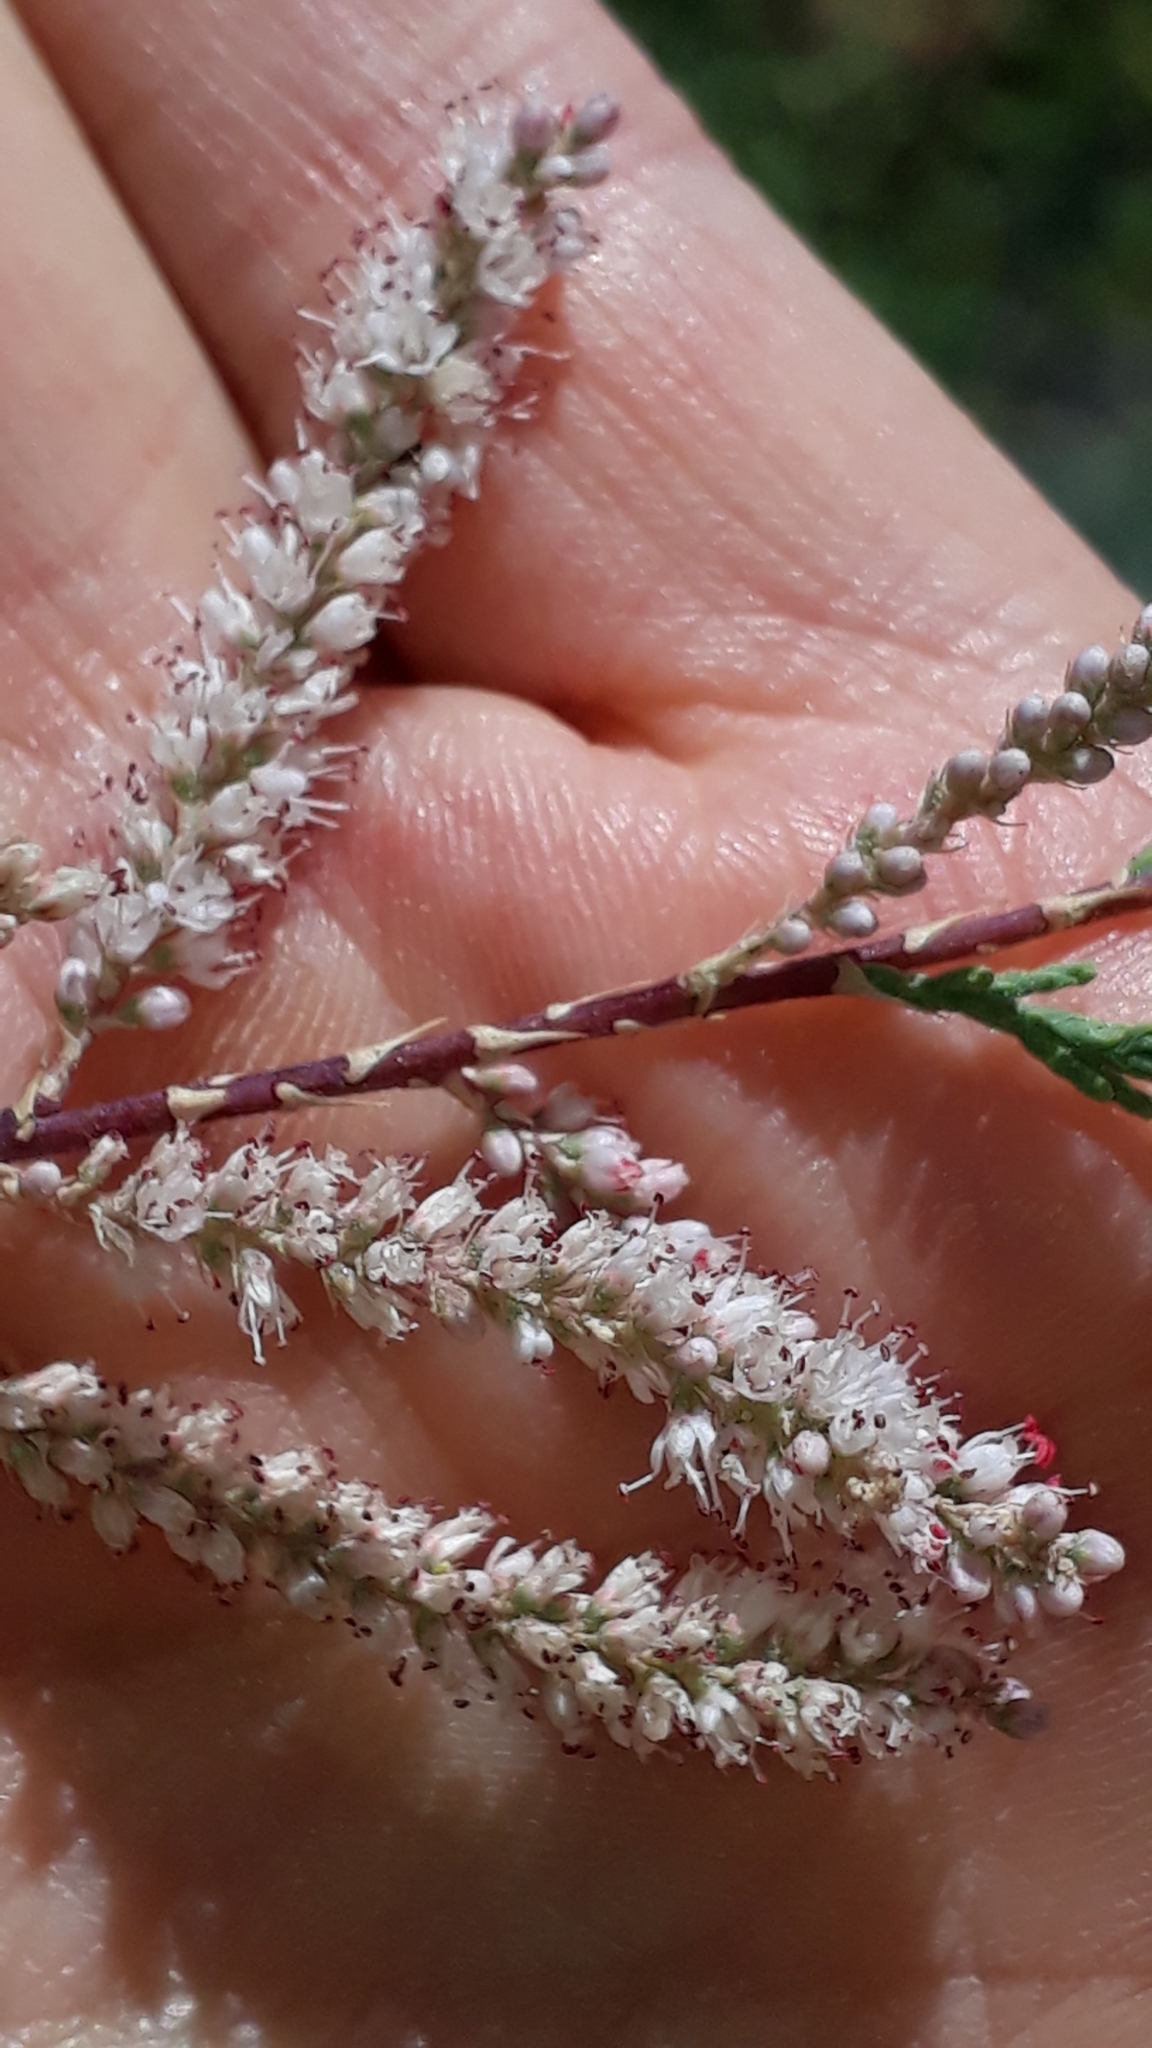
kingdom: Plantae
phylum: Tracheophyta
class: Magnoliopsida
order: Caryophyllales
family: Tamaricaceae
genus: Tamarix
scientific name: Tamarix canariensis
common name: Canary island tamarisk
